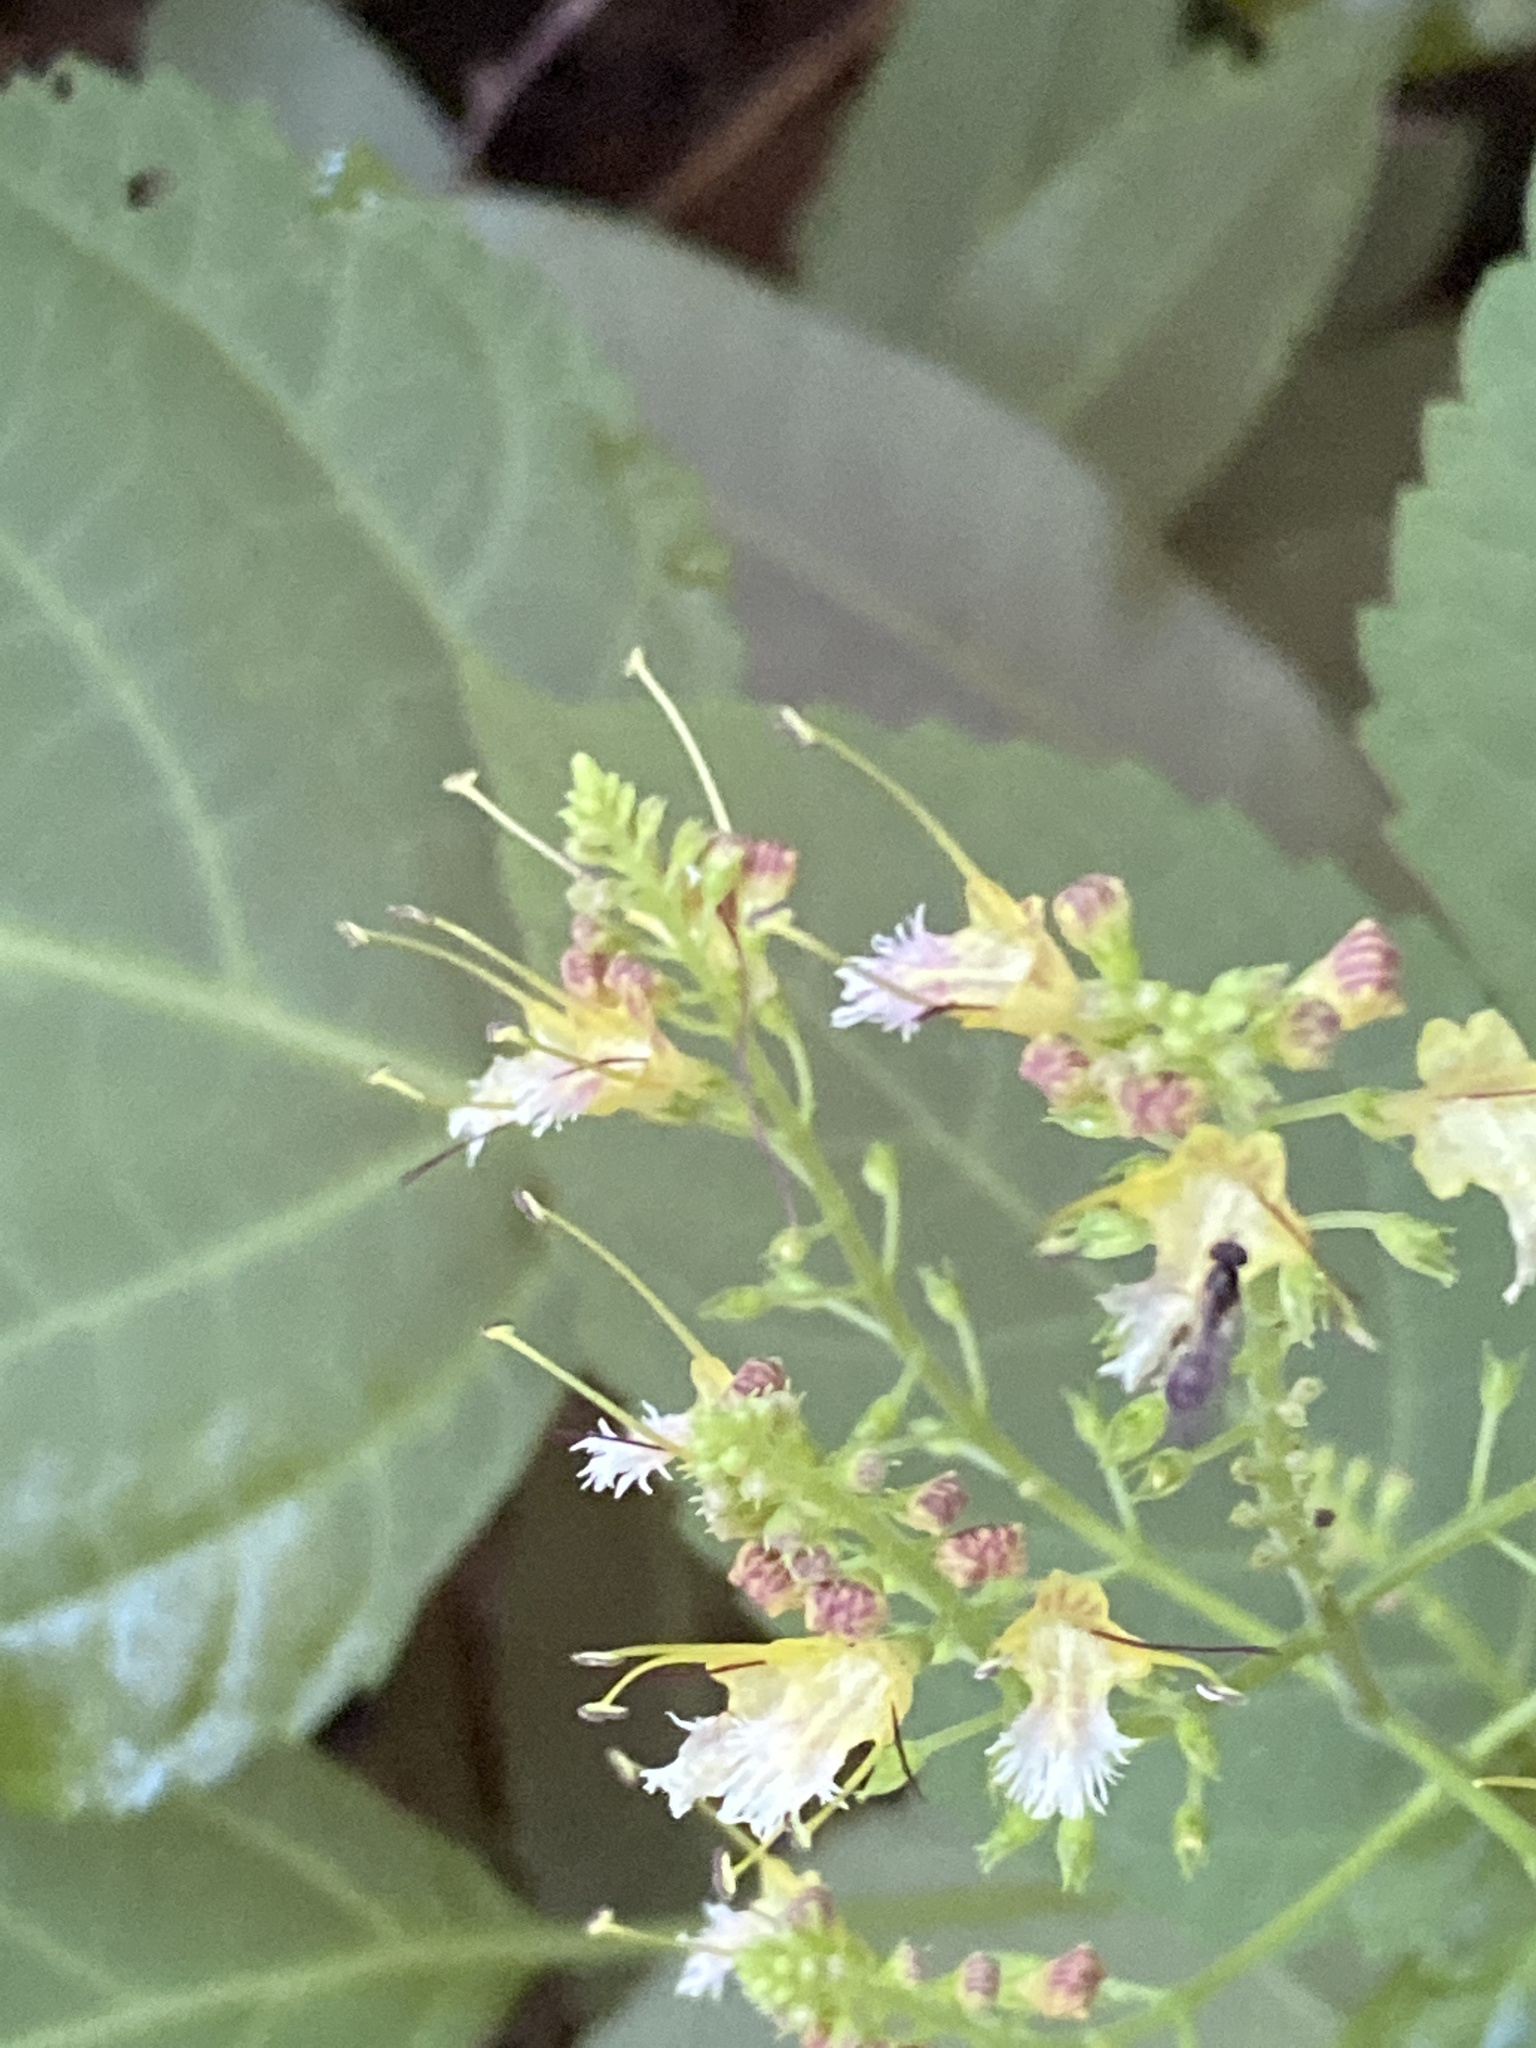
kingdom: Plantae
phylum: Tracheophyta
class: Magnoliopsida
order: Lamiales
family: Lamiaceae
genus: Collinsonia
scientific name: Collinsonia canadensis
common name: Northern horsebalm
